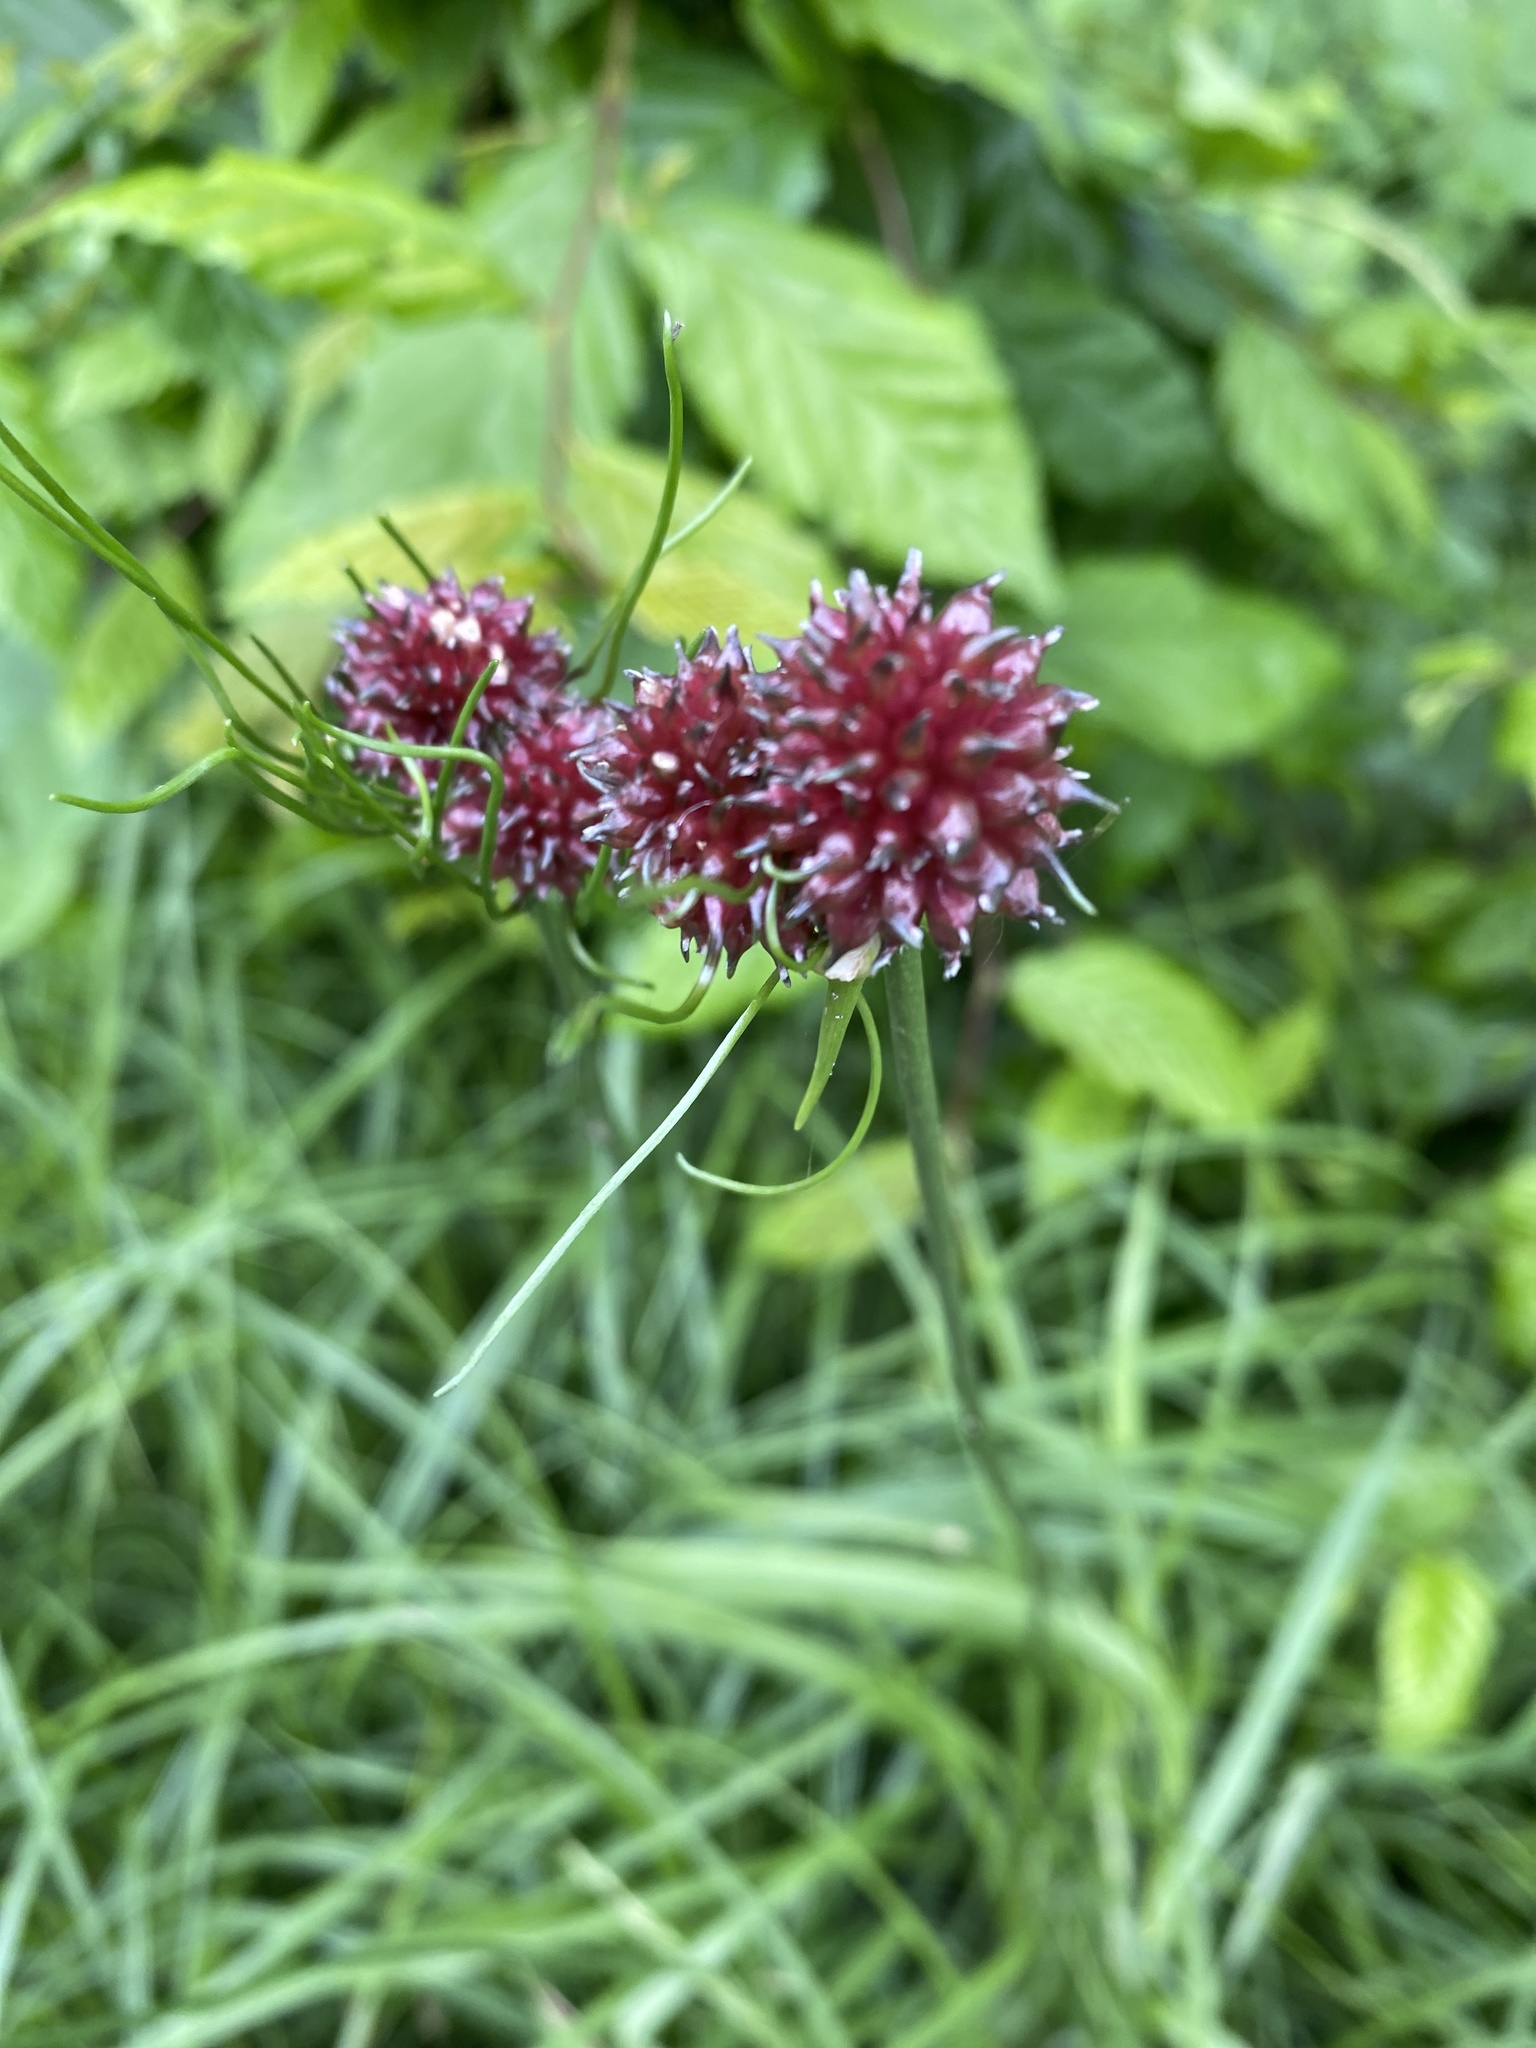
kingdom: Plantae
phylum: Tracheophyta
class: Liliopsida
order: Asparagales
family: Amaryllidaceae
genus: Allium
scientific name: Allium vineale
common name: Crow garlic
